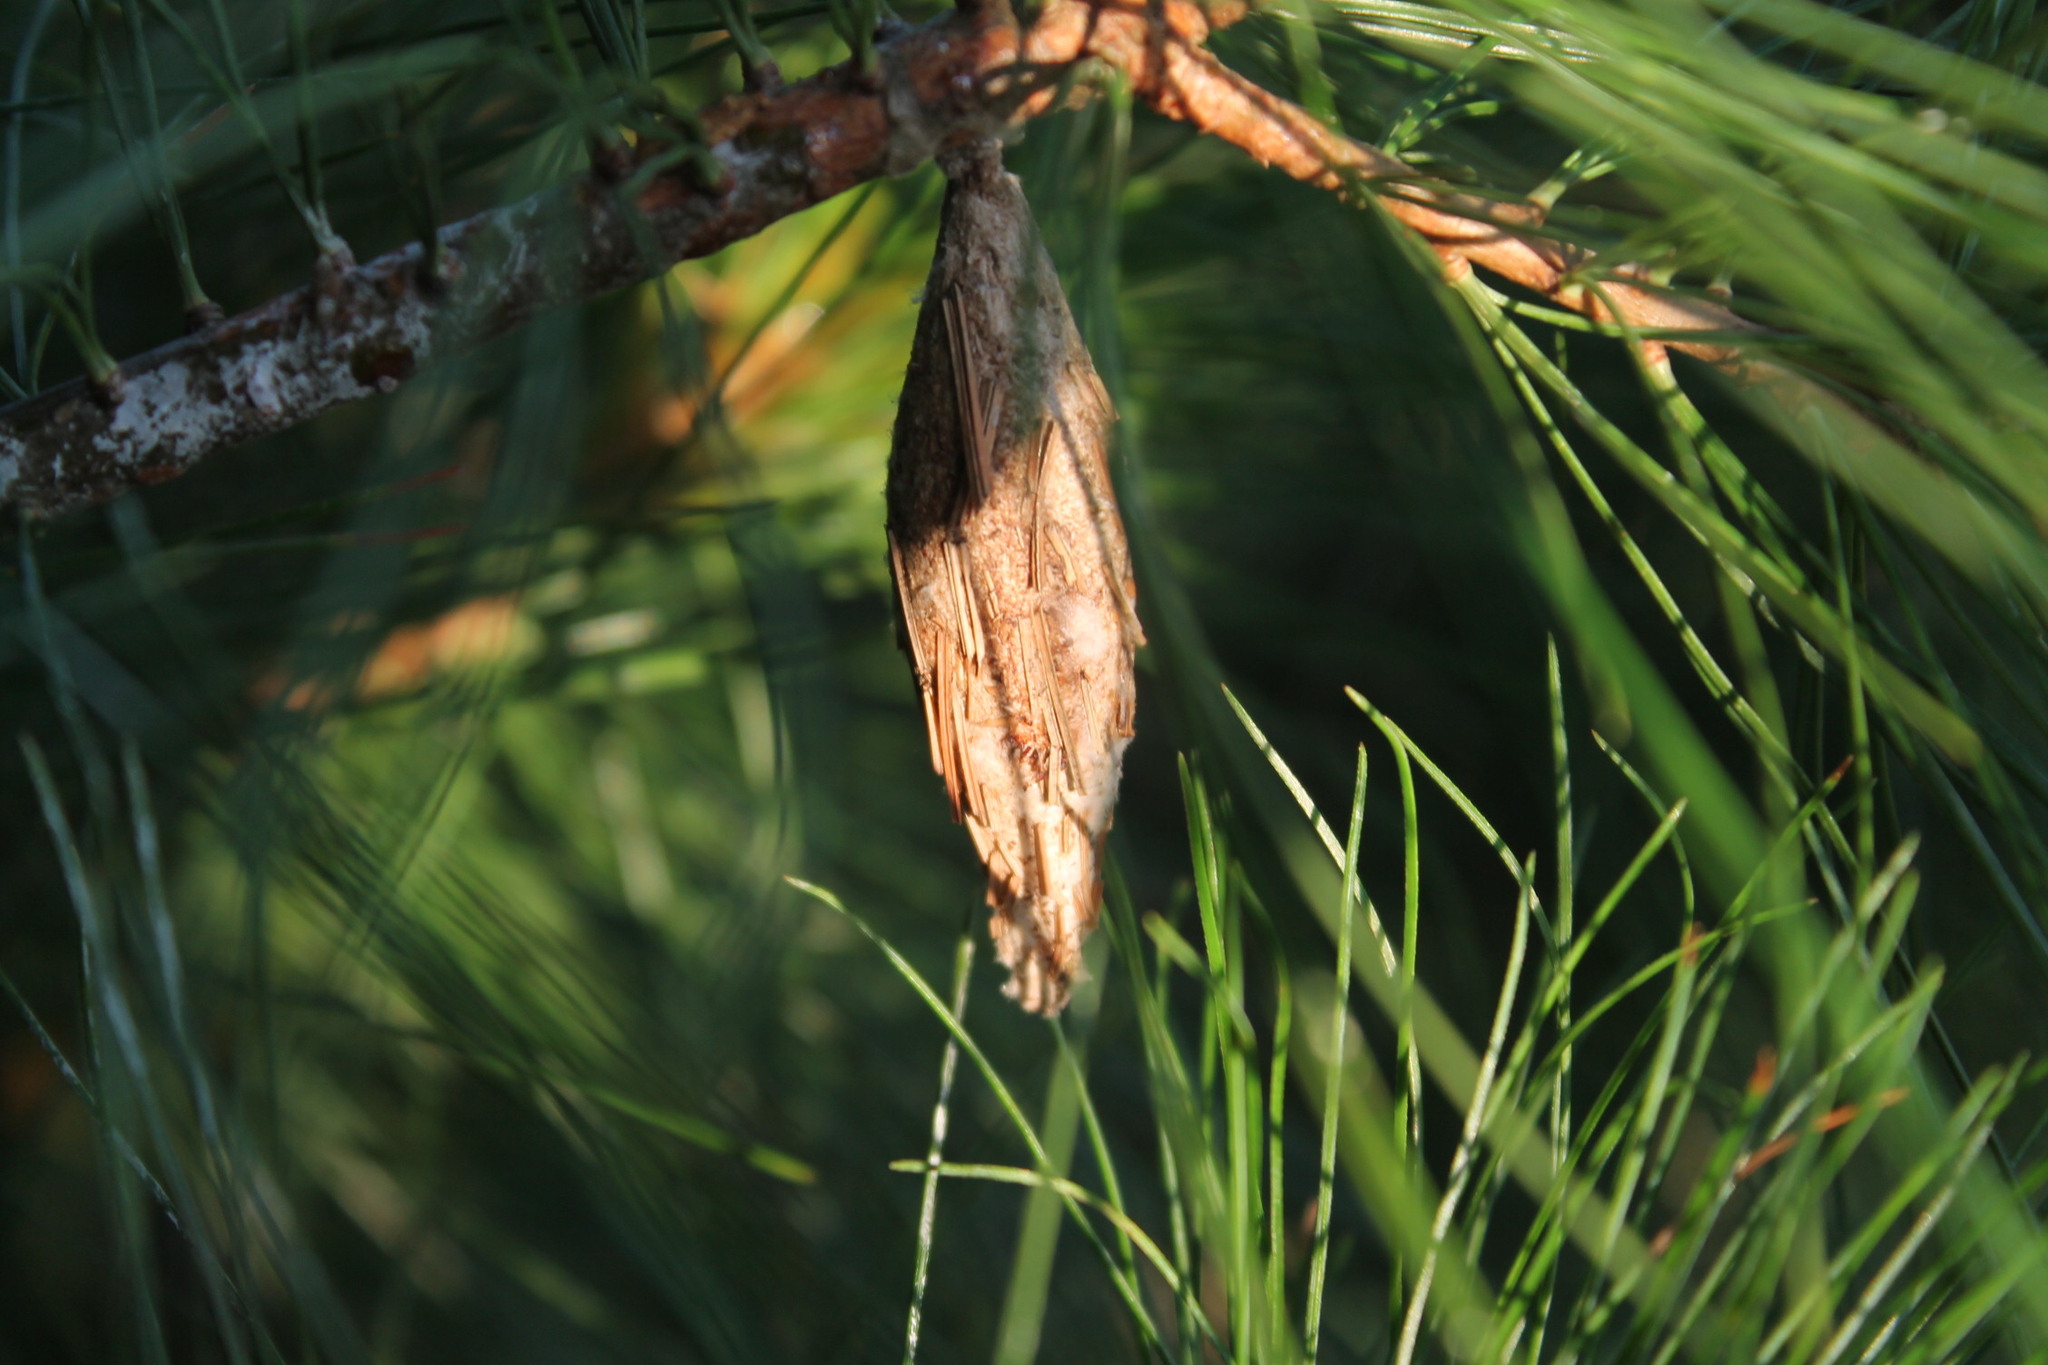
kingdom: Animalia
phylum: Arthropoda
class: Insecta
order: Lepidoptera
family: Psychidae
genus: Thyridopteryx
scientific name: Thyridopteryx ephemeraeformis
